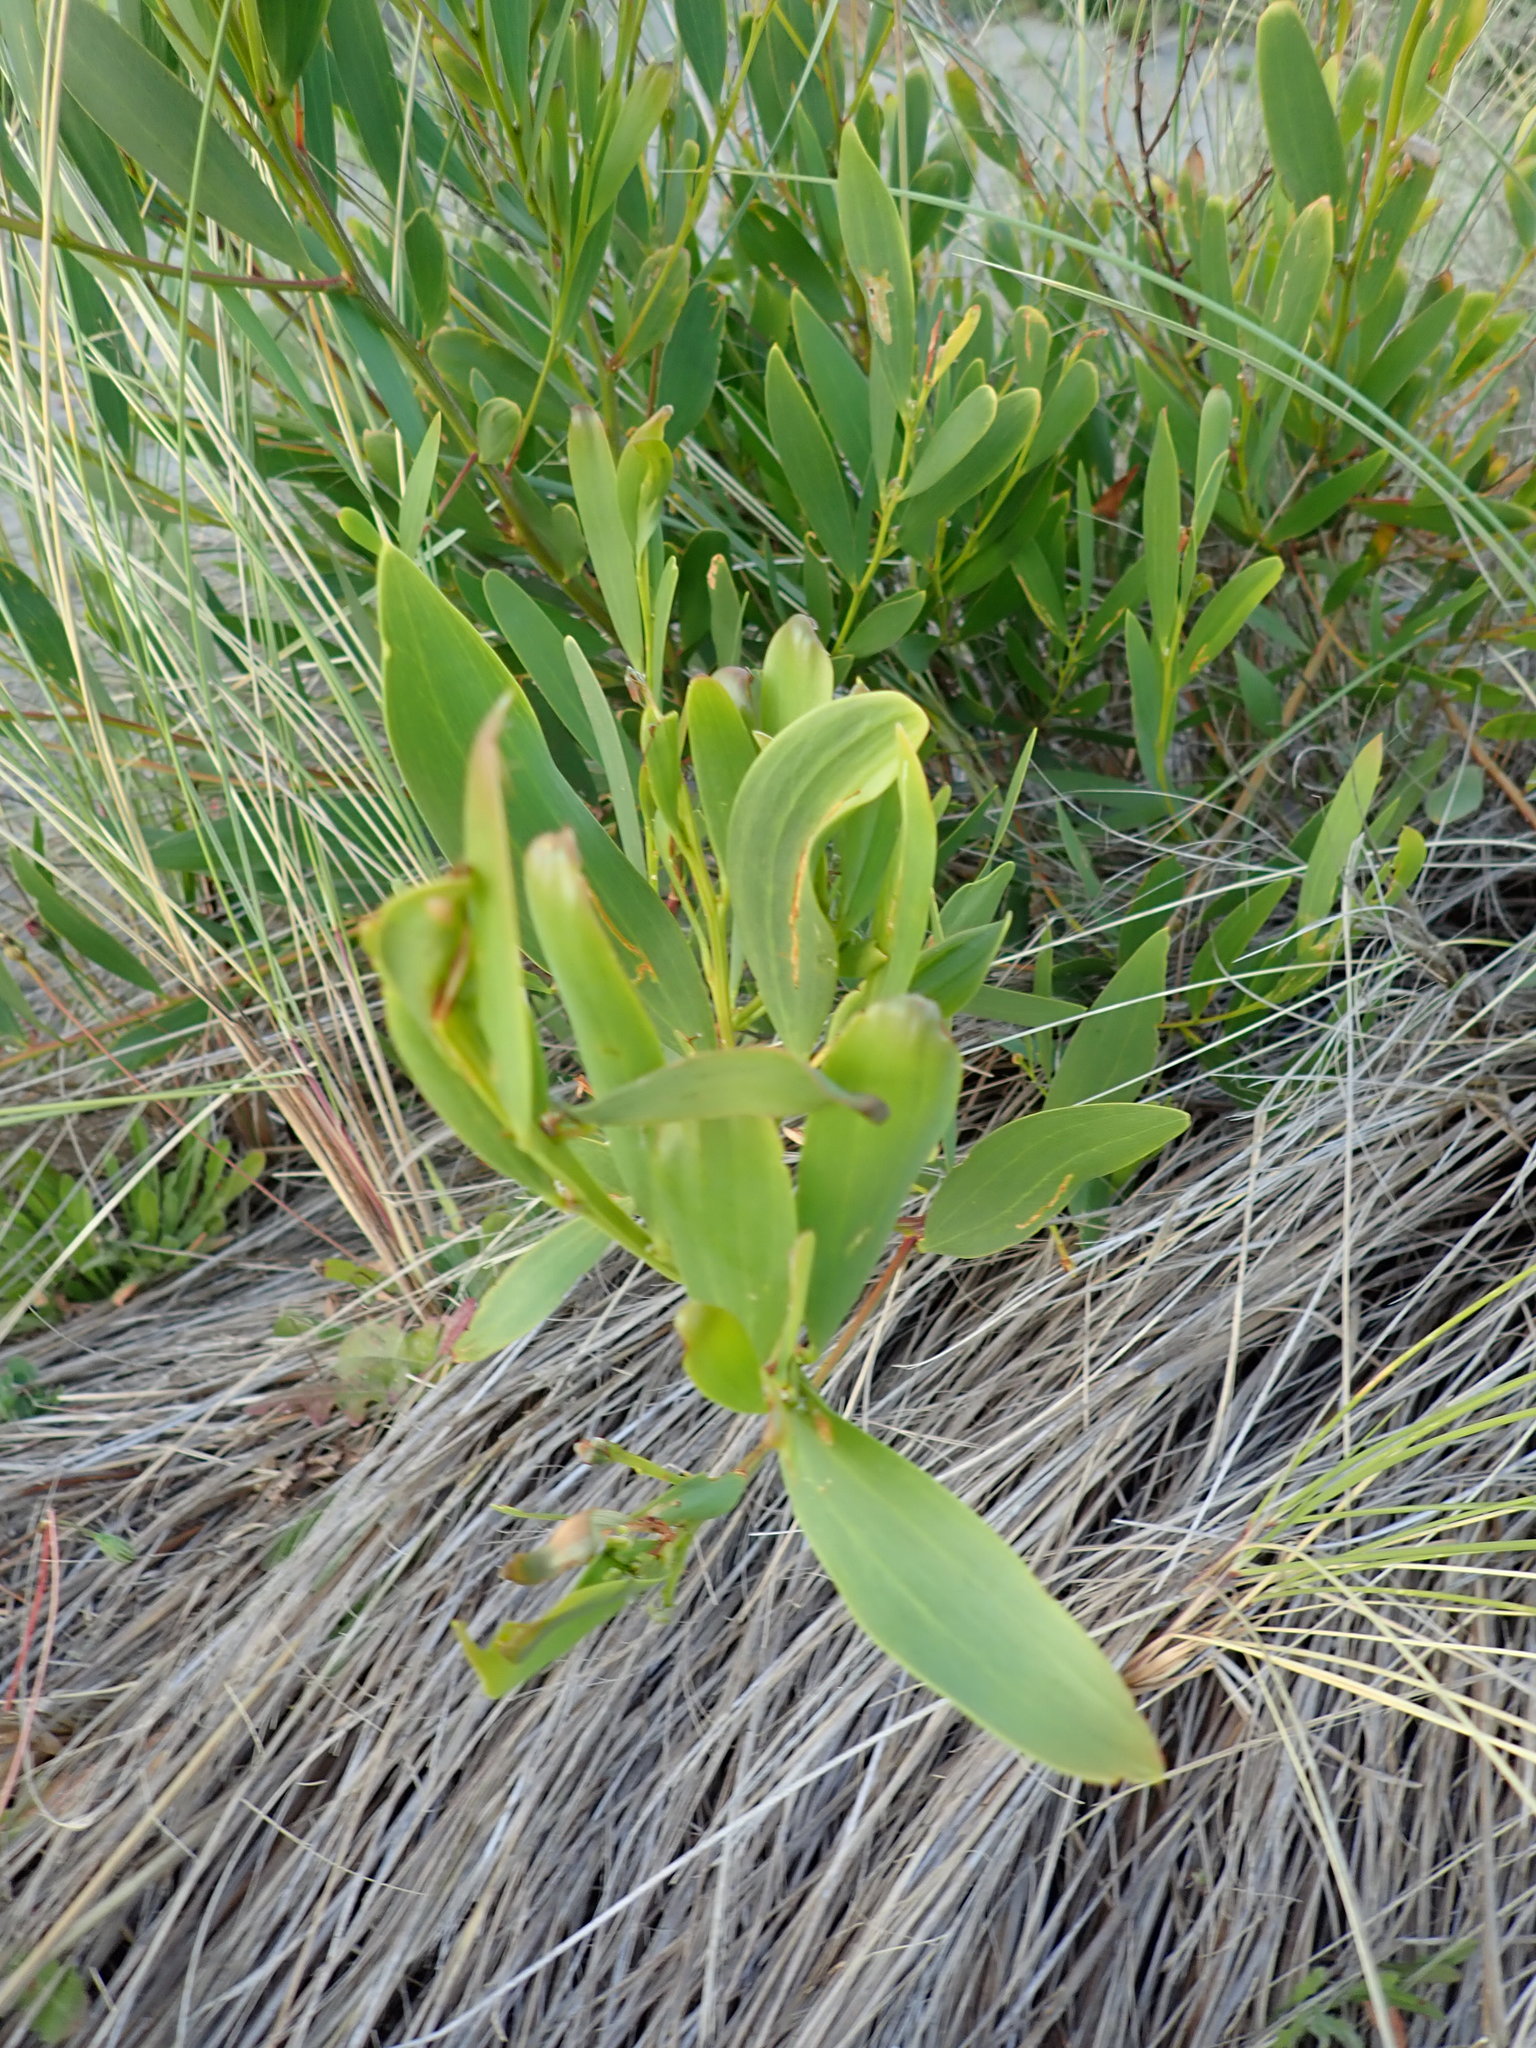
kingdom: Plantae
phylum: Tracheophyta
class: Magnoliopsida
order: Fabales
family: Fabaceae
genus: Acacia
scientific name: Acacia longifolia
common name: Sydney golden wattle
